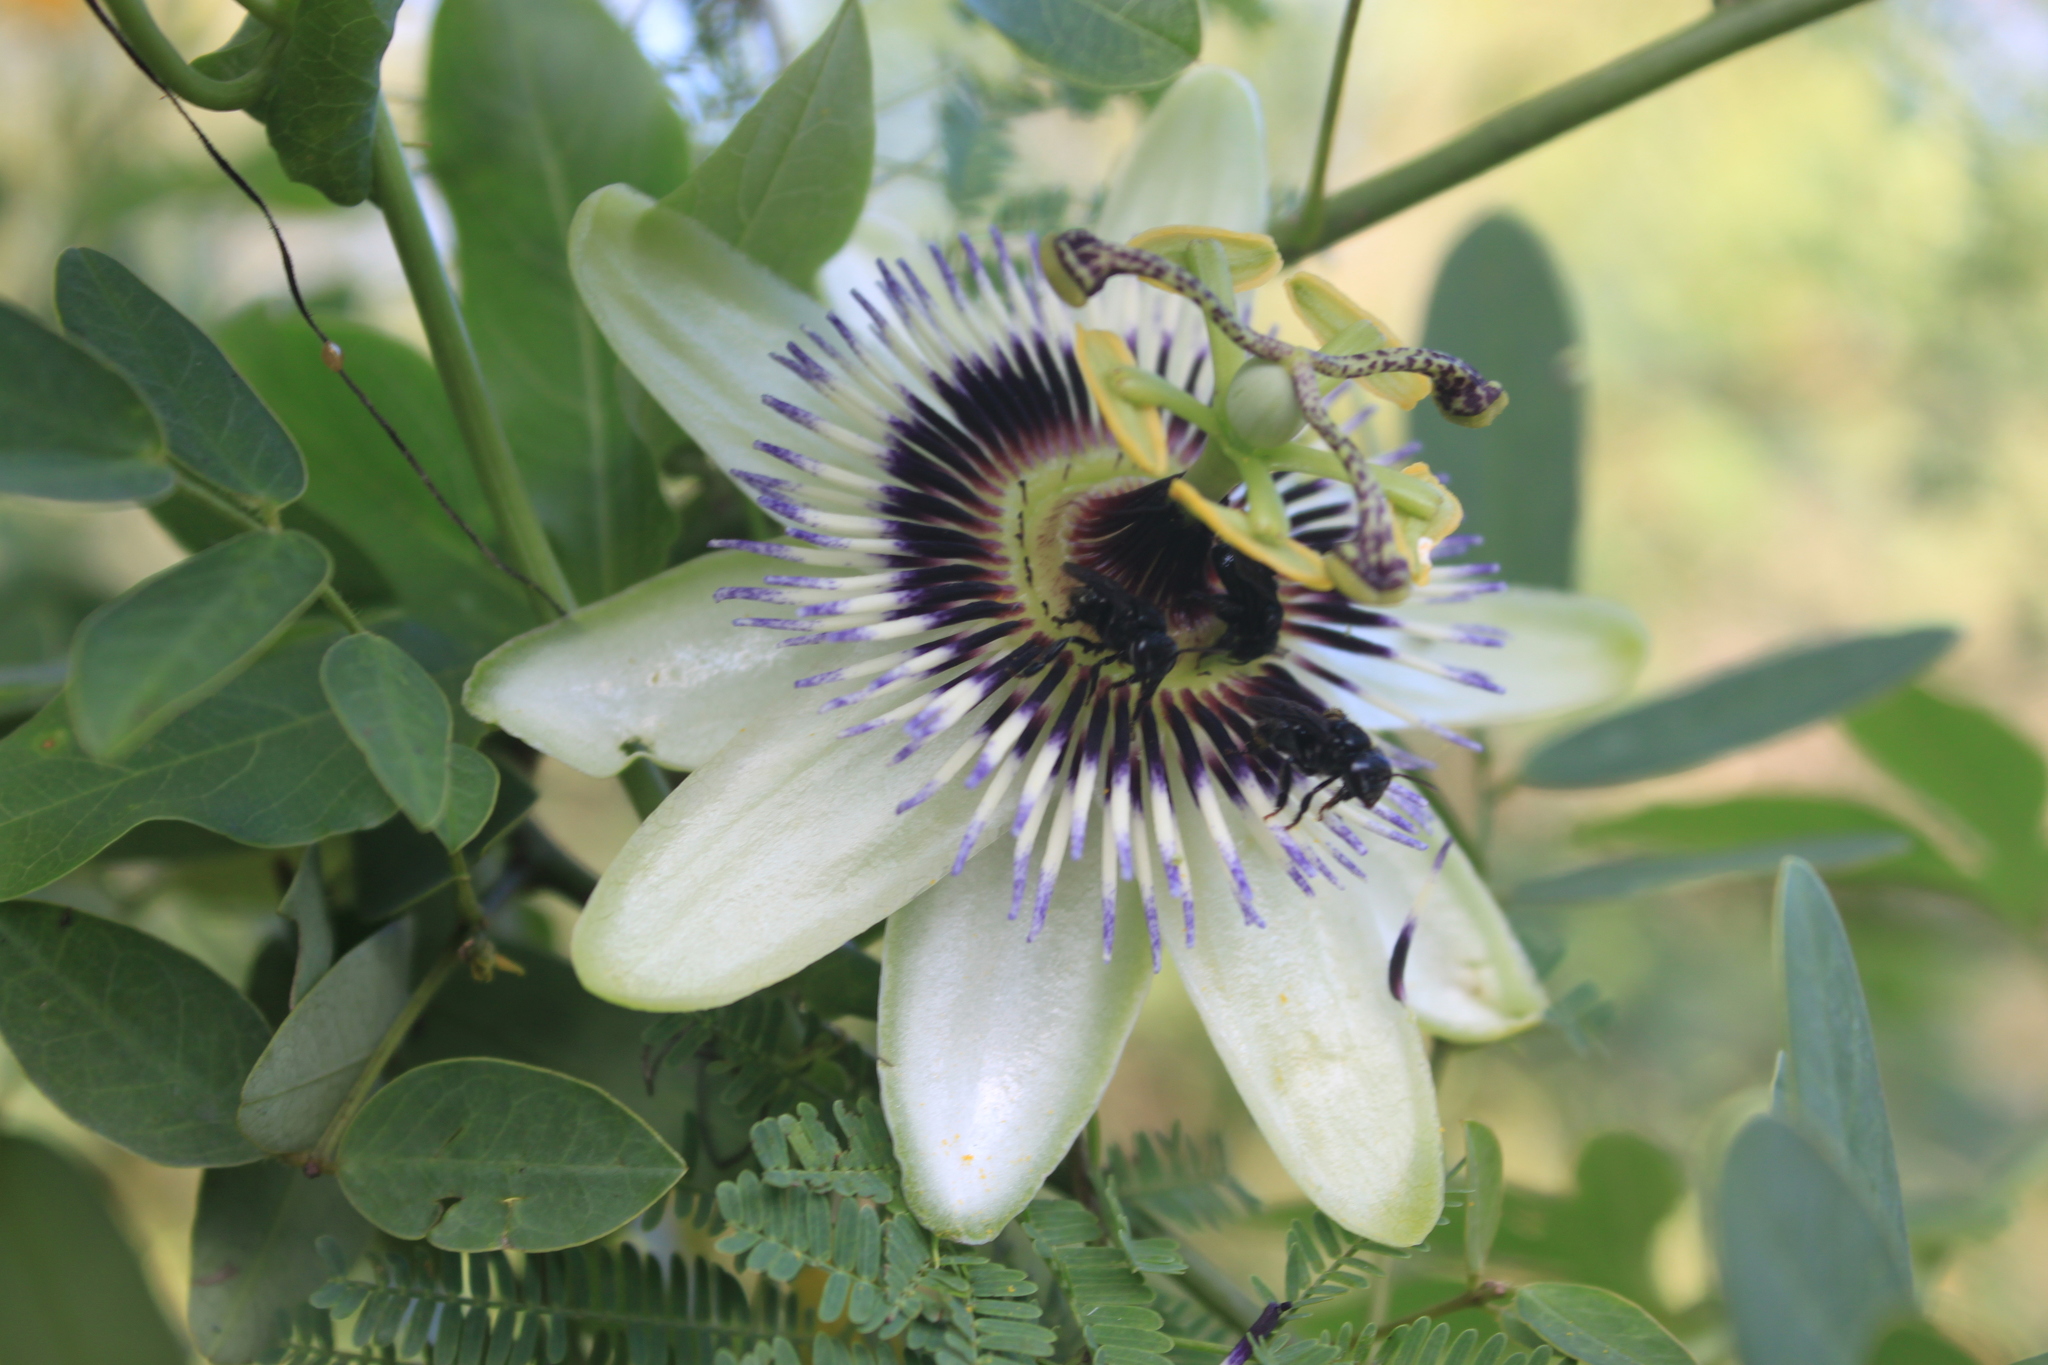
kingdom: Plantae
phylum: Tracheophyta
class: Magnoliopsida
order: Malpighiales
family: Passifloraceae
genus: Passiflora
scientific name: Passiflora caerulea
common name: Blue passionflower
